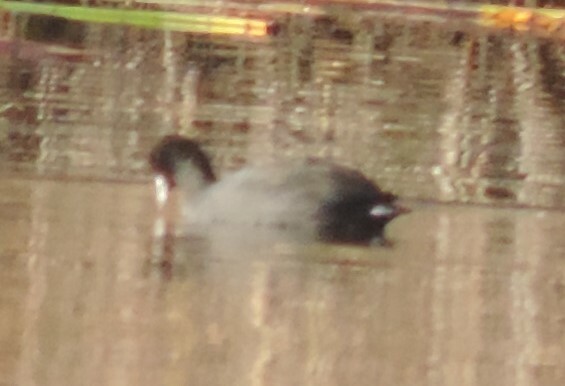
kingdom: Animalia
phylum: Chordata
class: Aves
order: Gruiformes
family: Rallidae
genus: Fulica
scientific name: Fulica americana
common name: American coot
